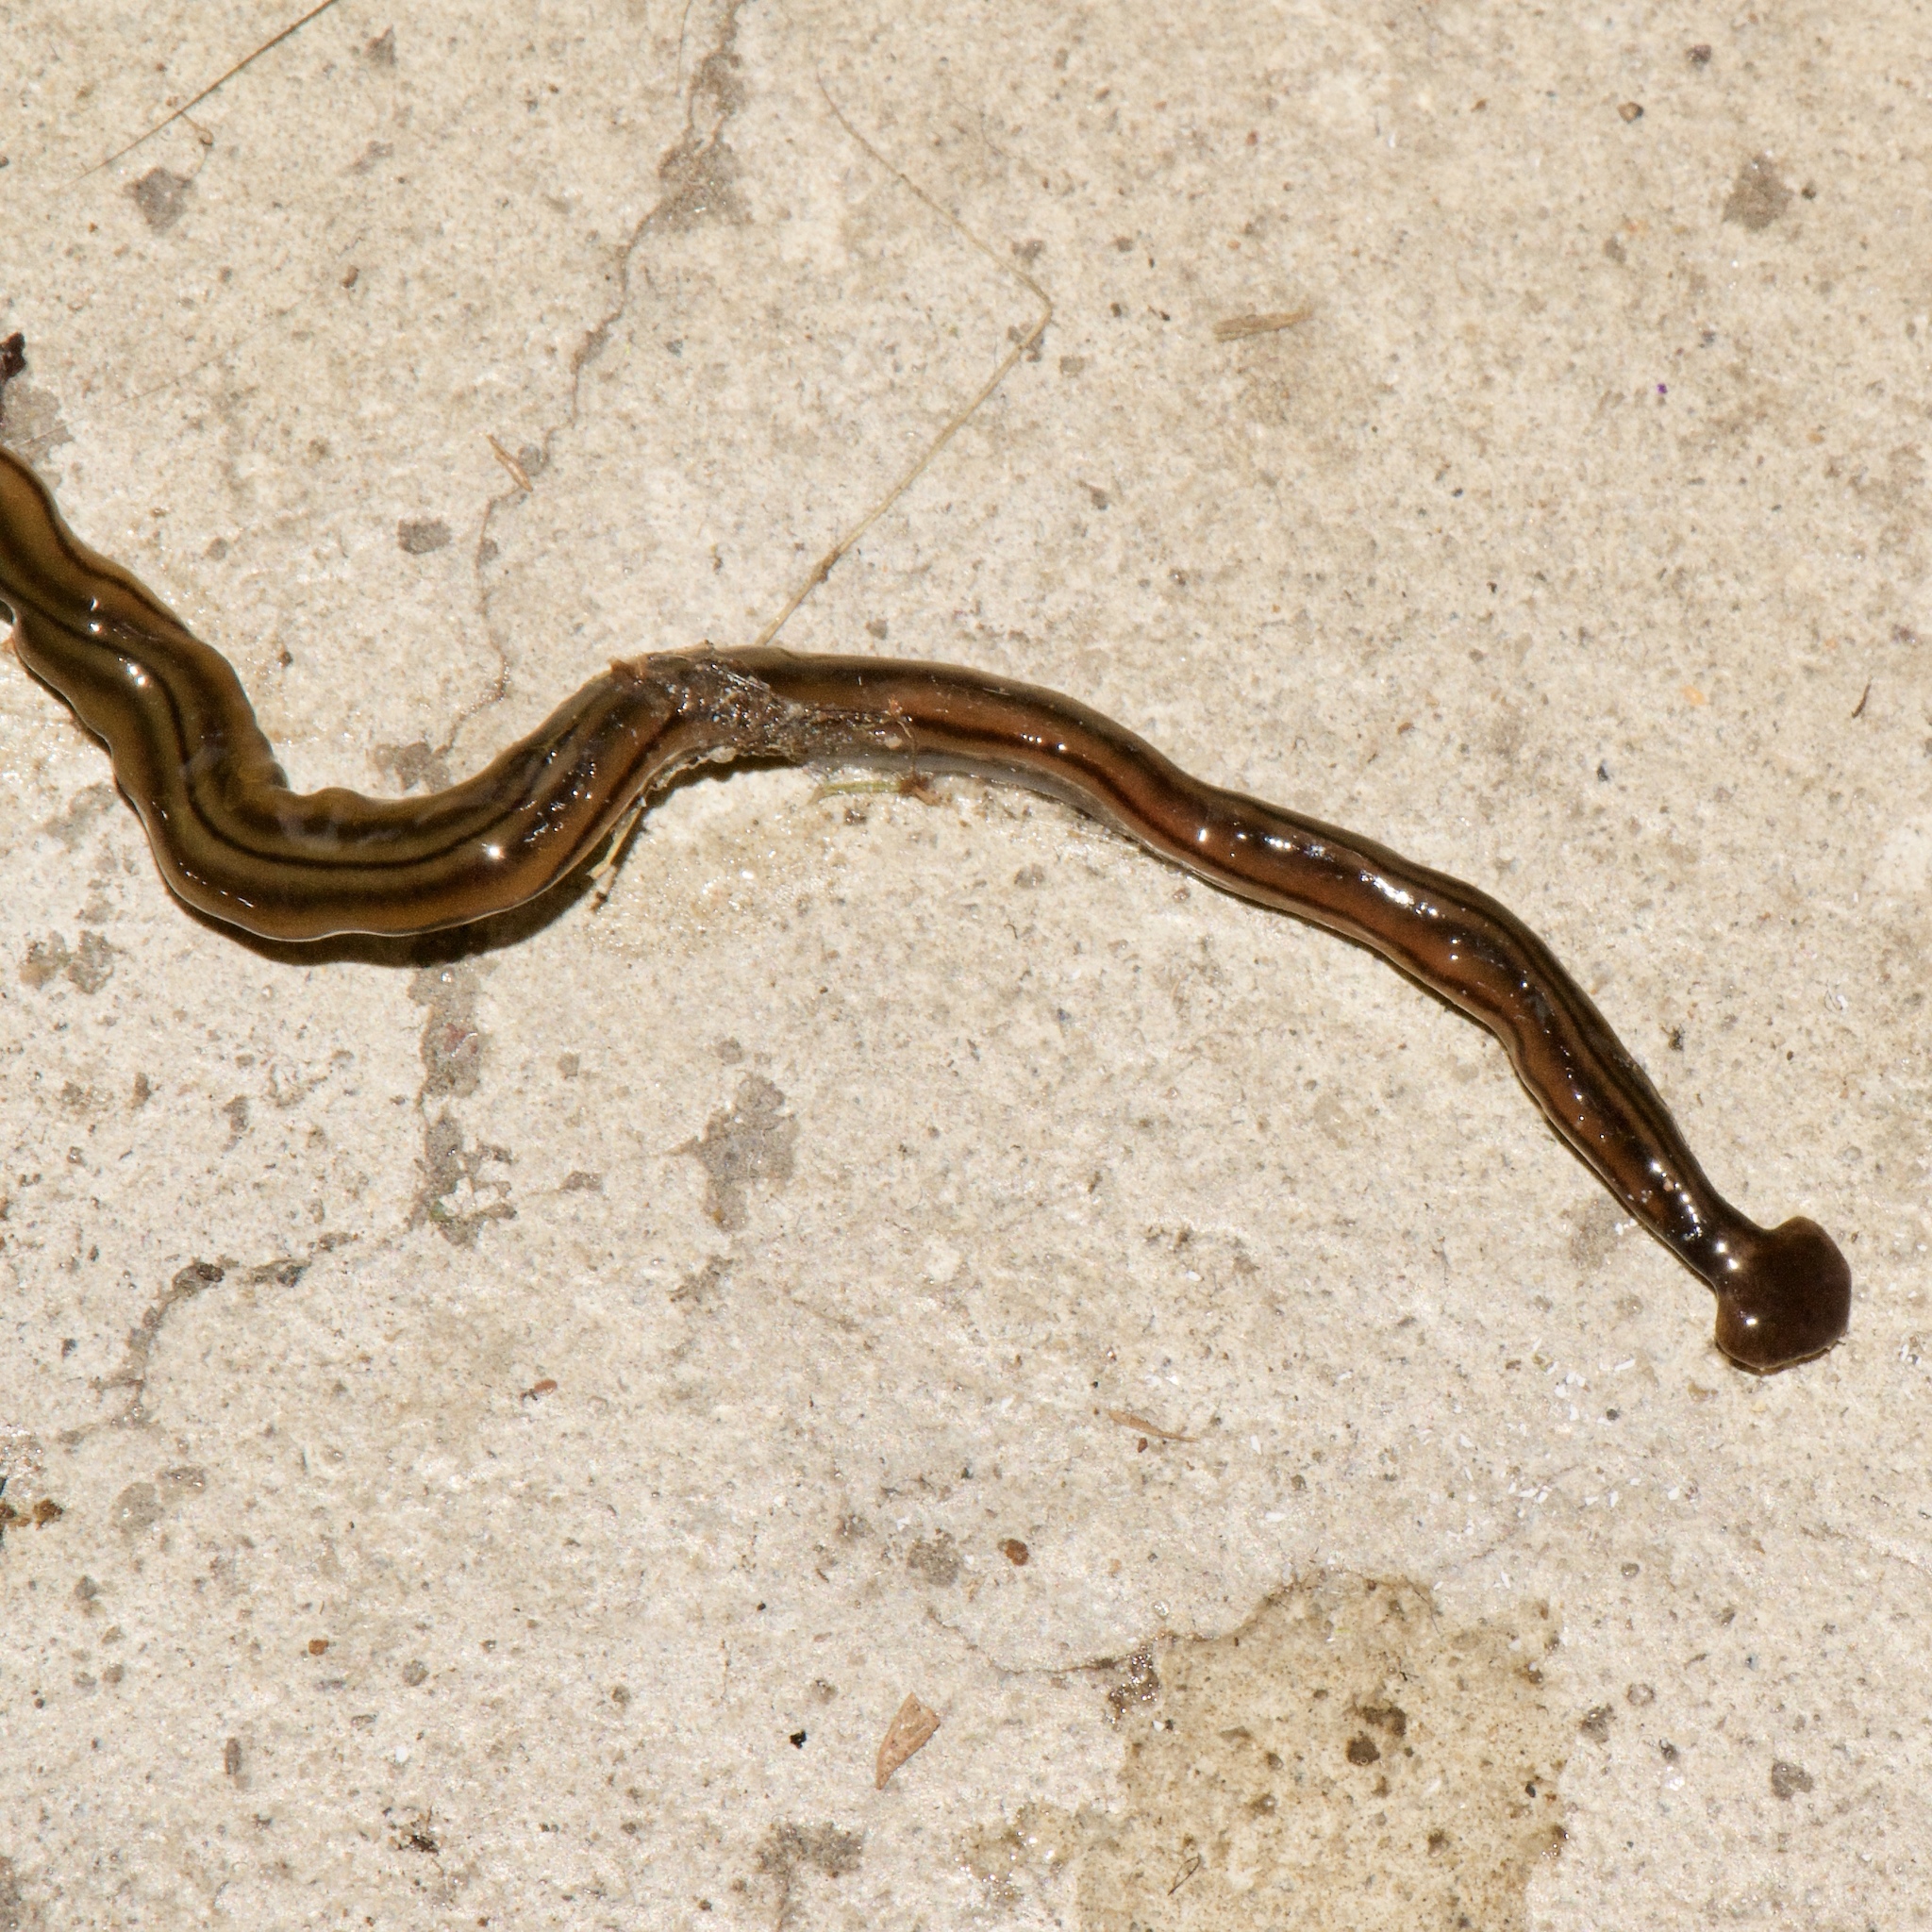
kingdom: Animalia
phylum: Platyhelminthes
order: Tricladida
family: Geoplanidae
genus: Bipalium
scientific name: Bipalium kewense
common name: Hammerhead flatworm
